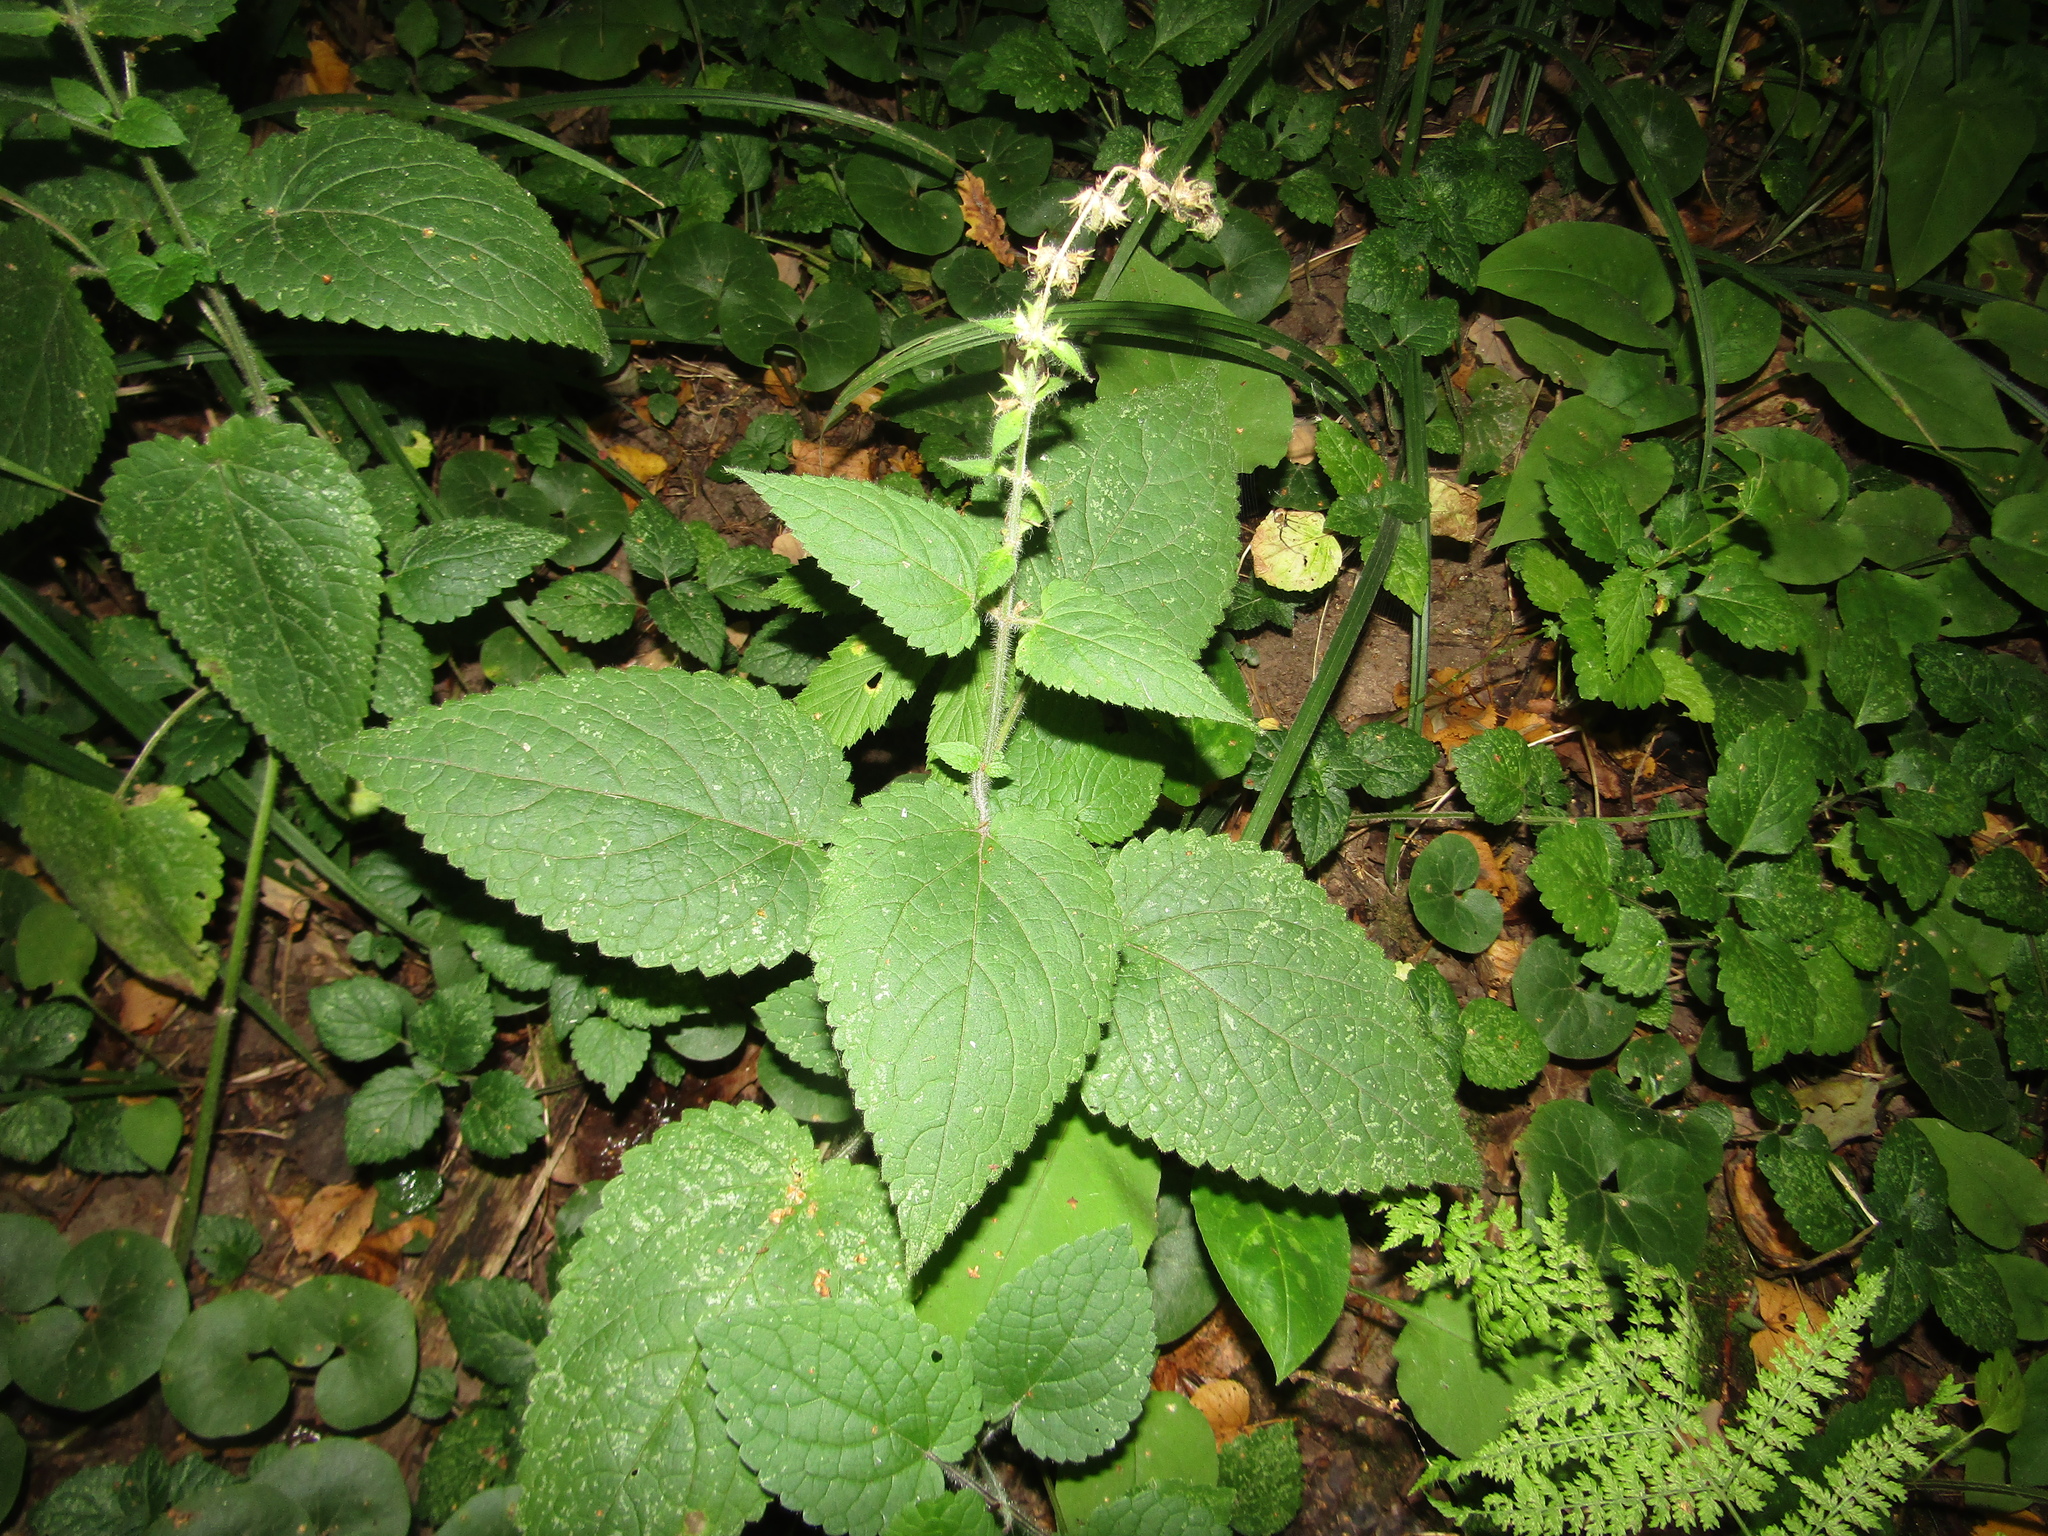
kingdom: Plantae
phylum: Tracheophyta
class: Magnoliopsida
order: Lamiales
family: Lamiaceae
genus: Stachys
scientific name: Stachys sylvatica
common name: Hedge woundwort
